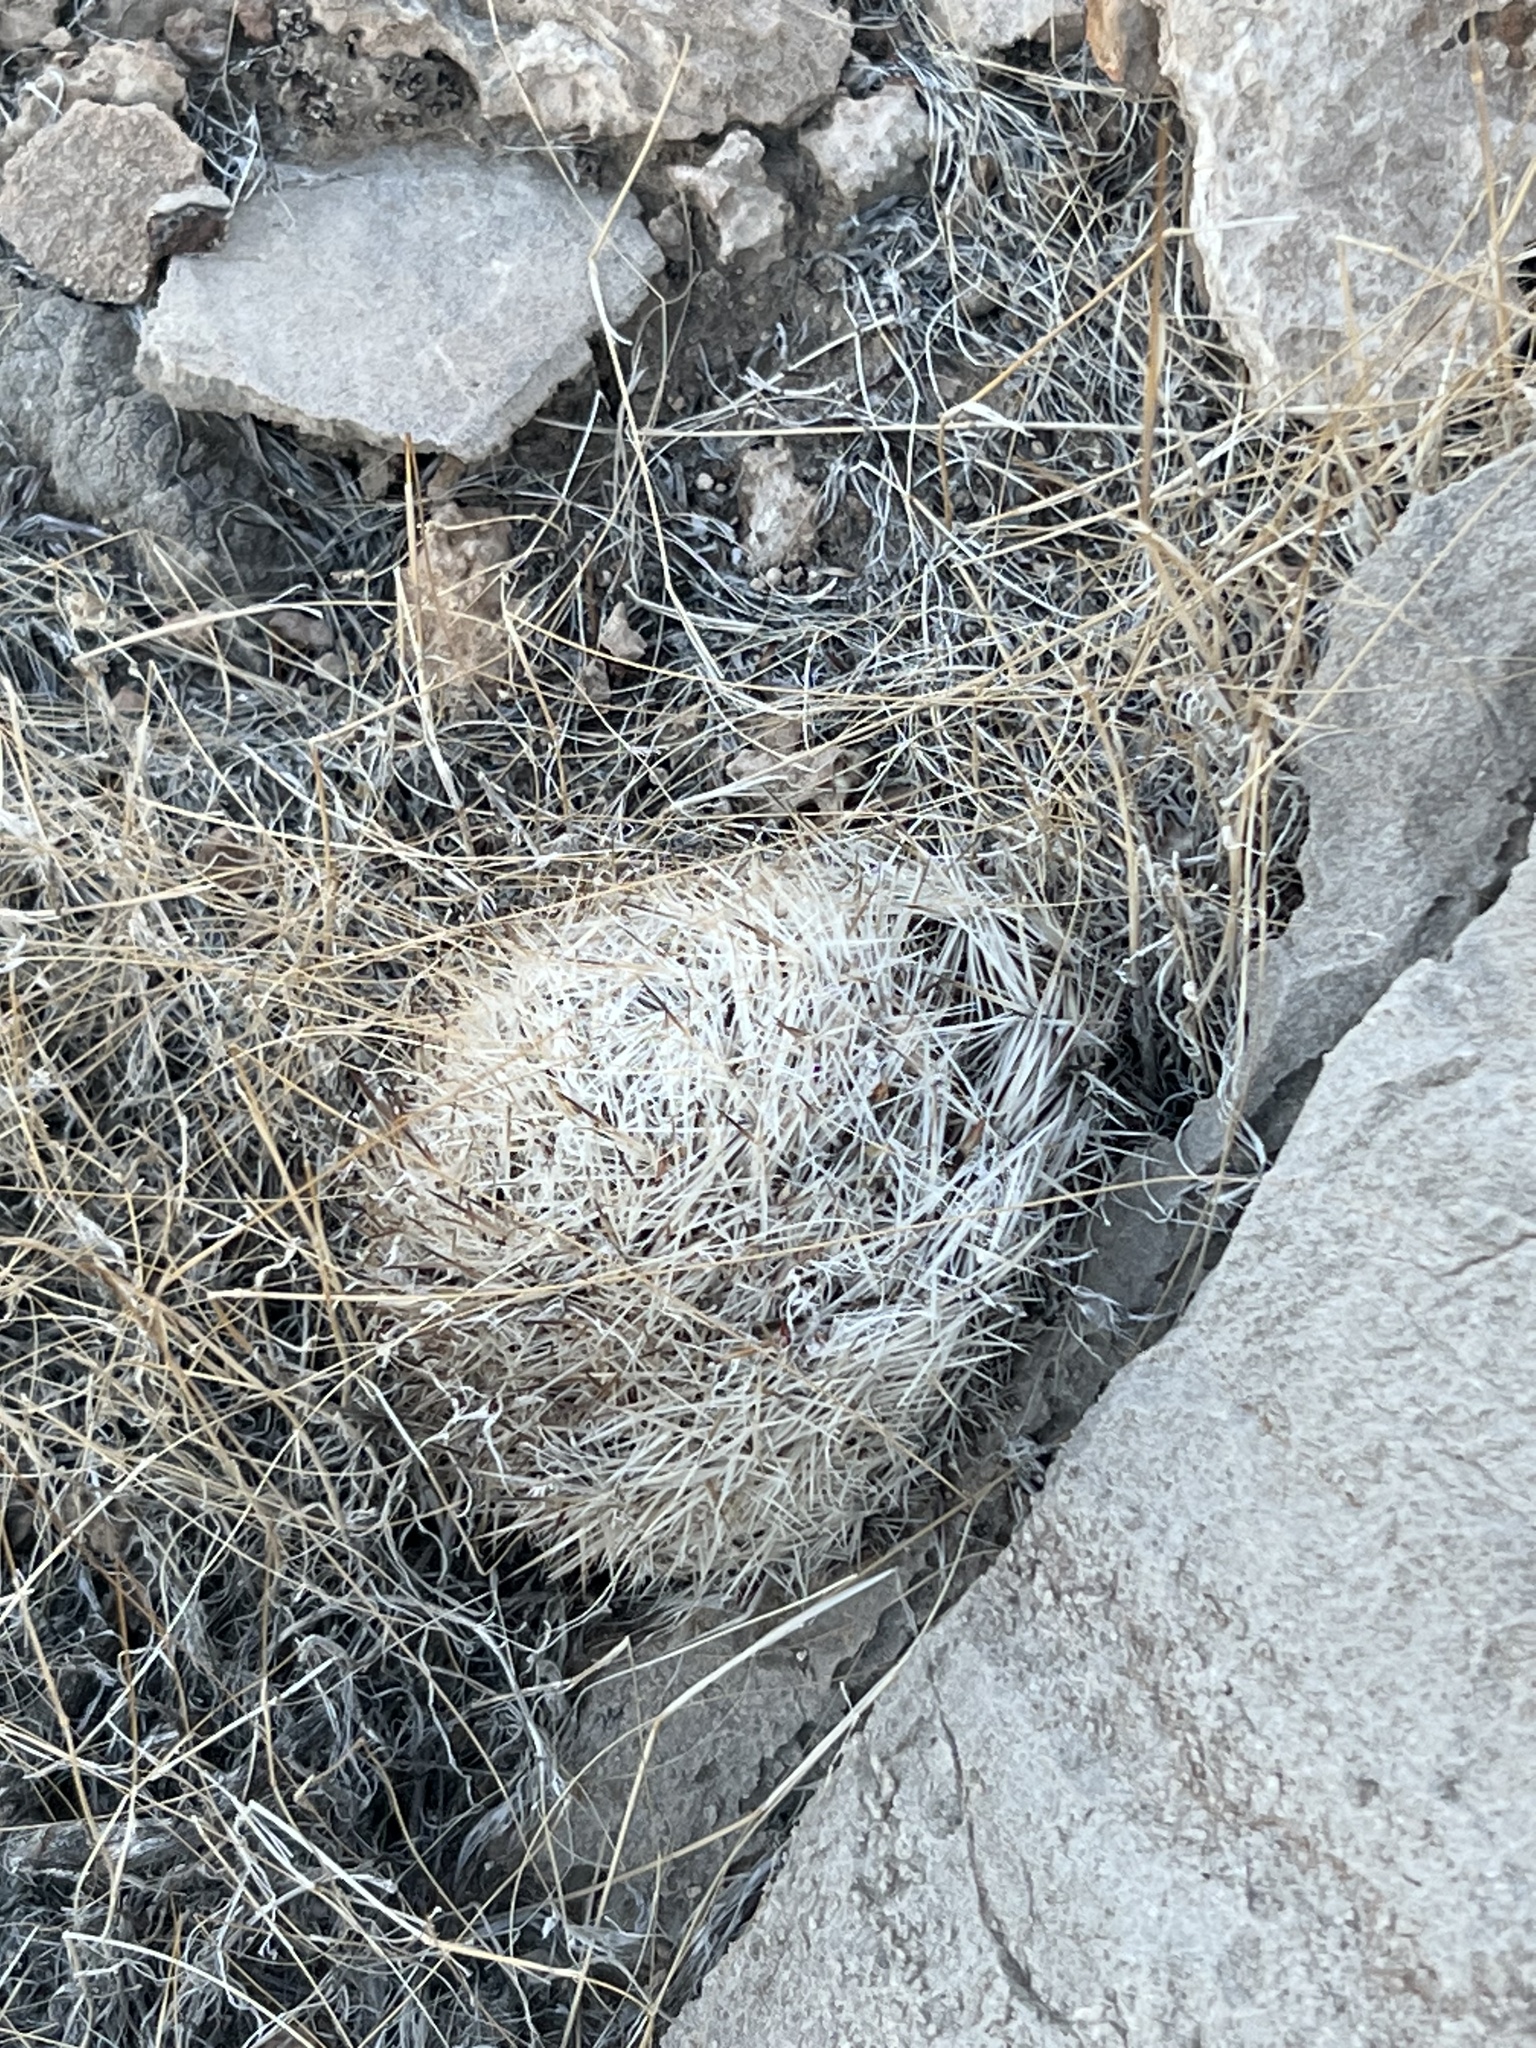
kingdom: Plantae
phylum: Tracheophyta
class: Magnoliopsida
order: Caryophyllales
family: Cactaceae
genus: Pelecyphora
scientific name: Pelecyphora dasyacantha
